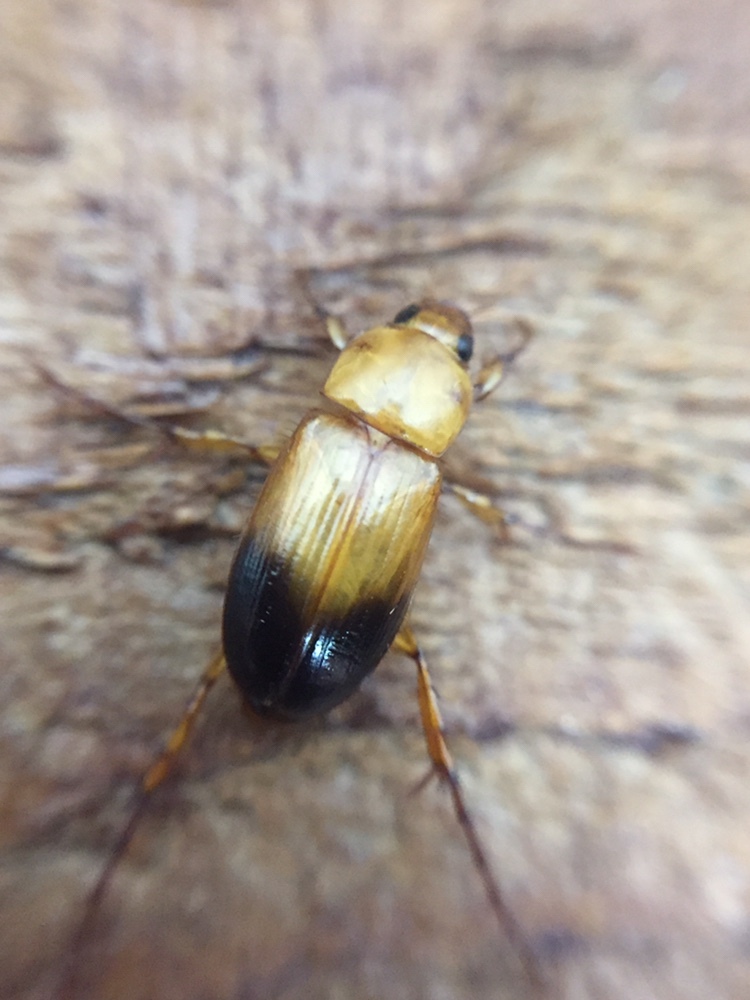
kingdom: Animalia
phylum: Arthropoda
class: Insecta
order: Coleoptera
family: Scarabaeidae
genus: Phyllotocus
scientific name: Phyllotocus macleayi
